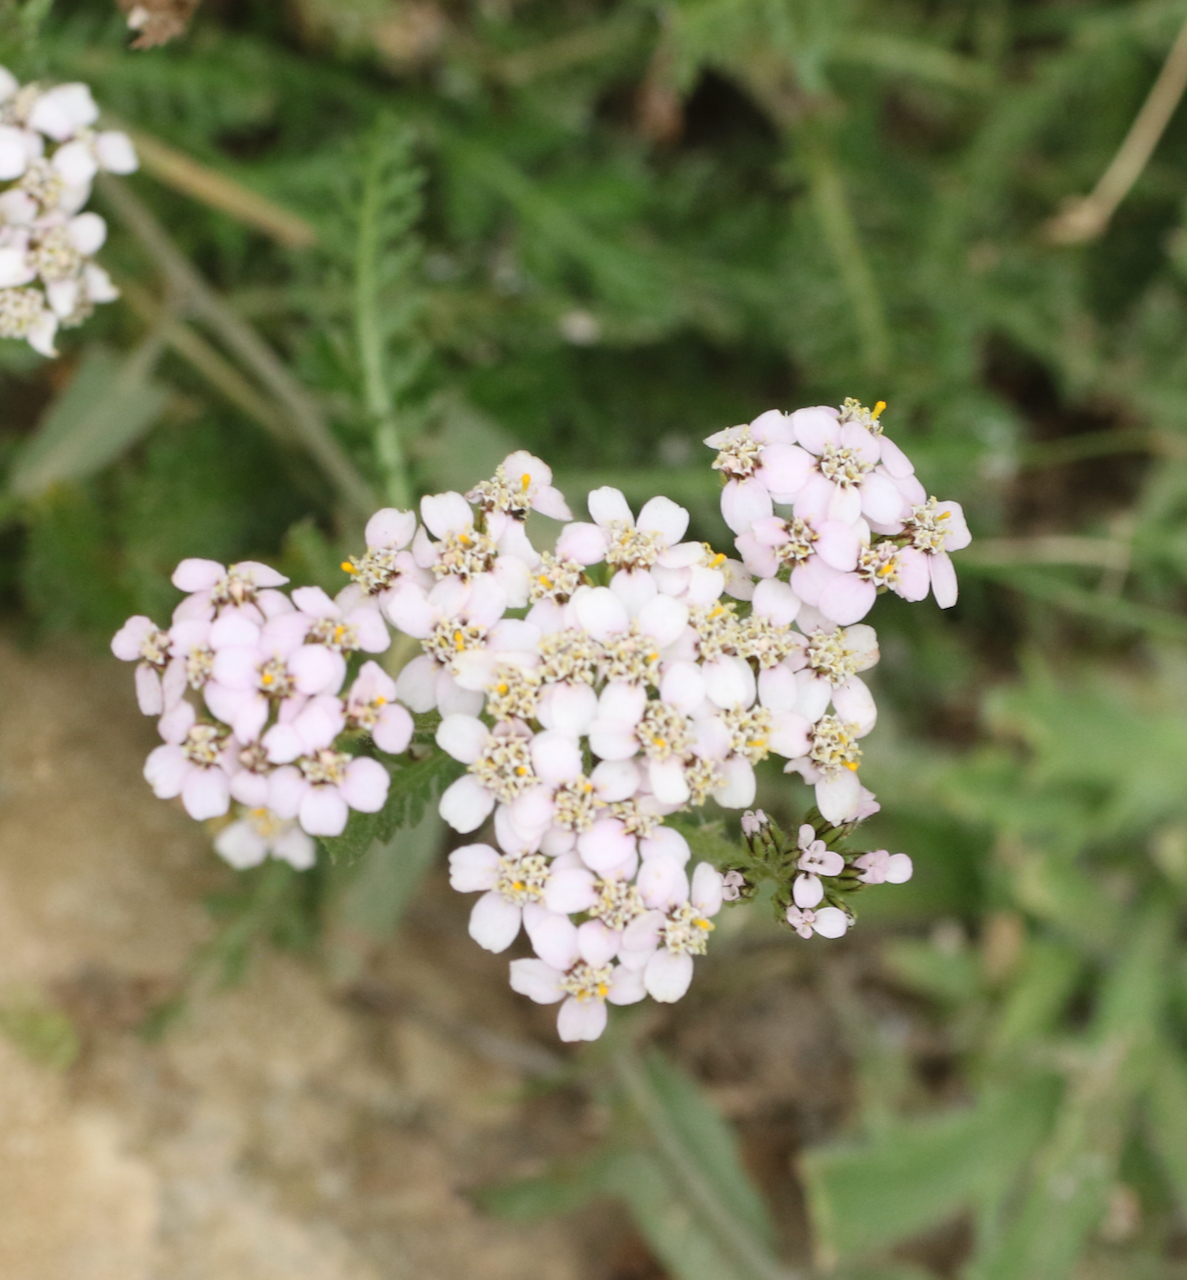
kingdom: Plantae
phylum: Tracheophyta
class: Magnoliopsida
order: Asterales
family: Asteraceae
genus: Achillea
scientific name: Achillea millefolium
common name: Yarrow
